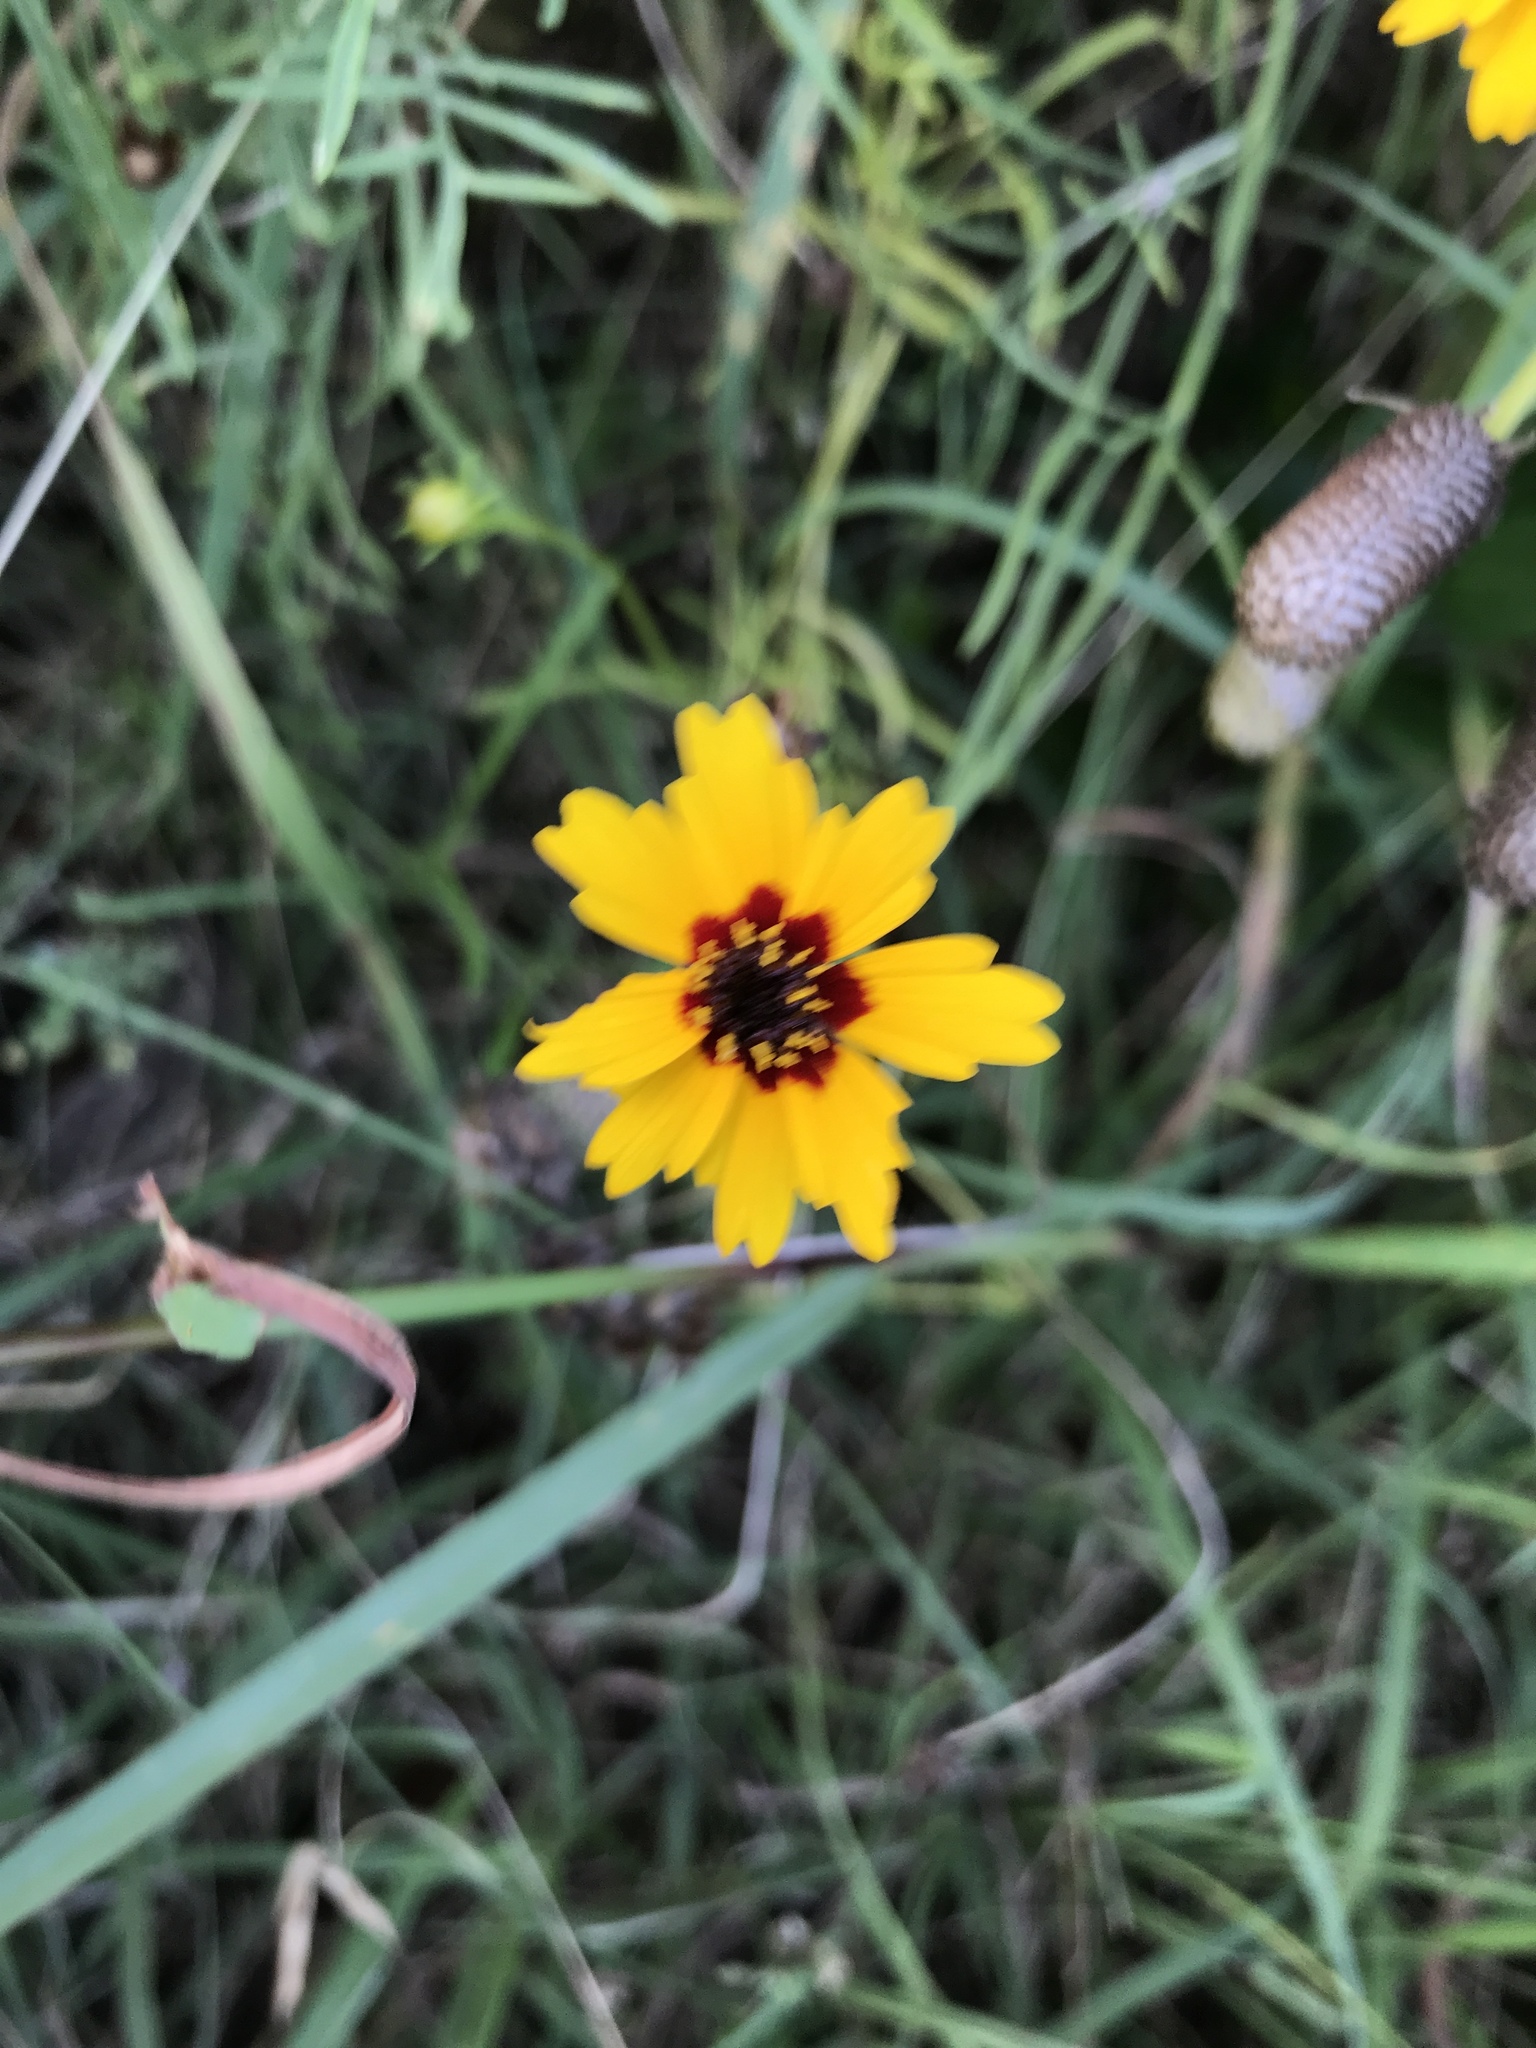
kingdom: Plantae
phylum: Tracheophyta
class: Magnoliopsida
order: Asterales
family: Asteraceae
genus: Coreopsis
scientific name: Coreopsis basalis
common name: Golden-mane coreopsis
